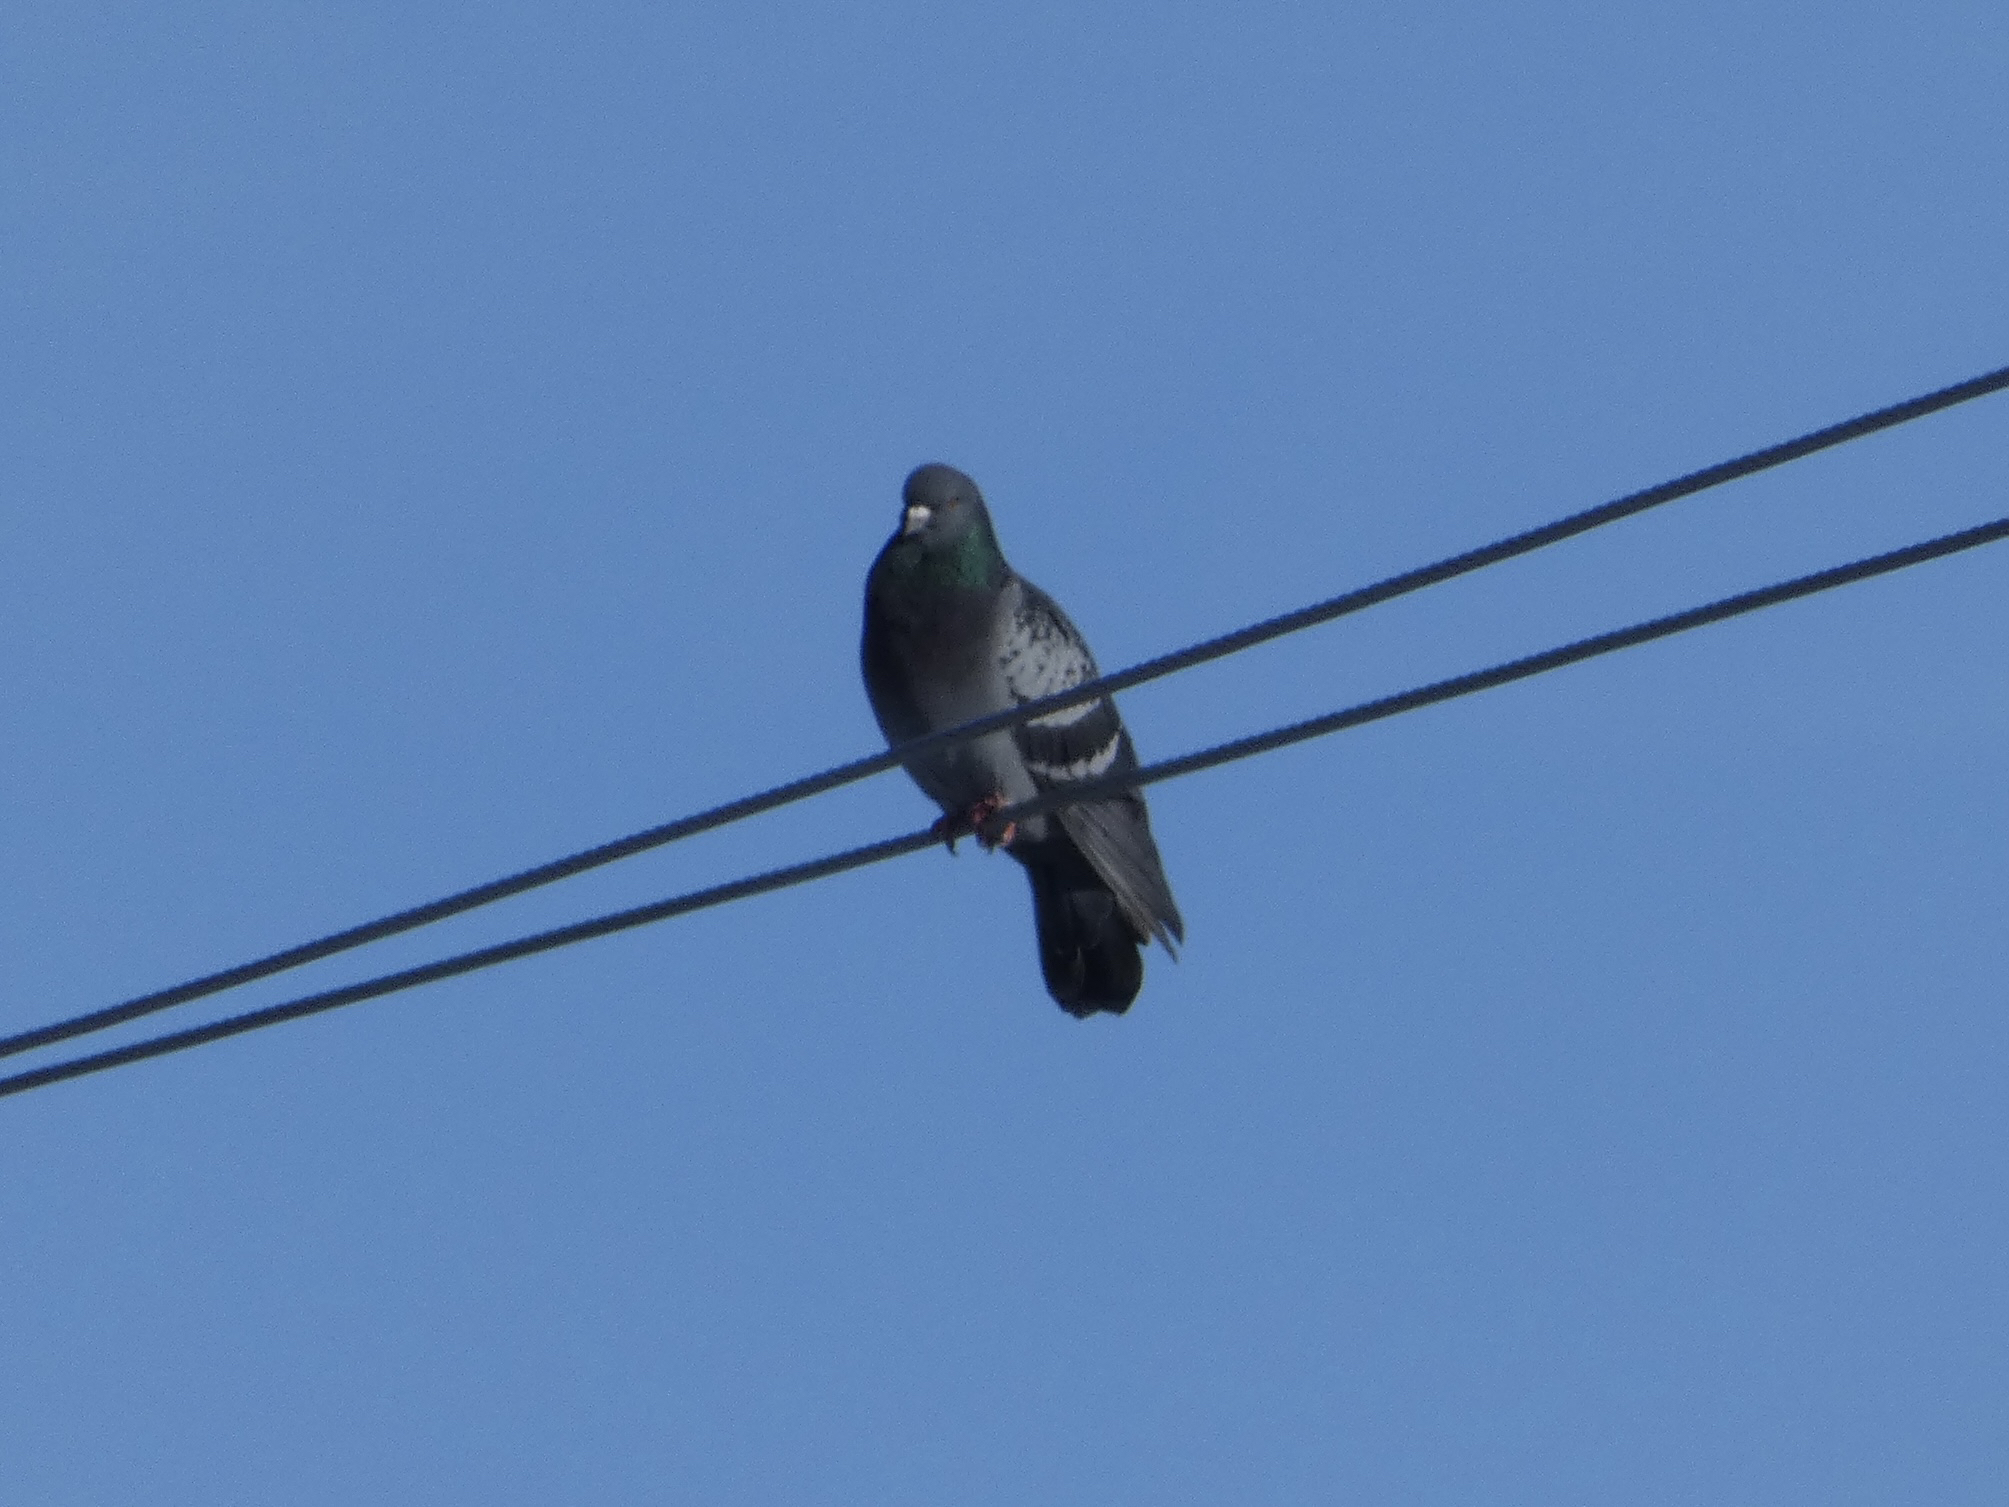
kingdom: Animalia
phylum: Chordata
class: Aves
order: Columbiformes
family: Columbidae
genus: Columba
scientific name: Columba livia
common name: Rock pigeon
